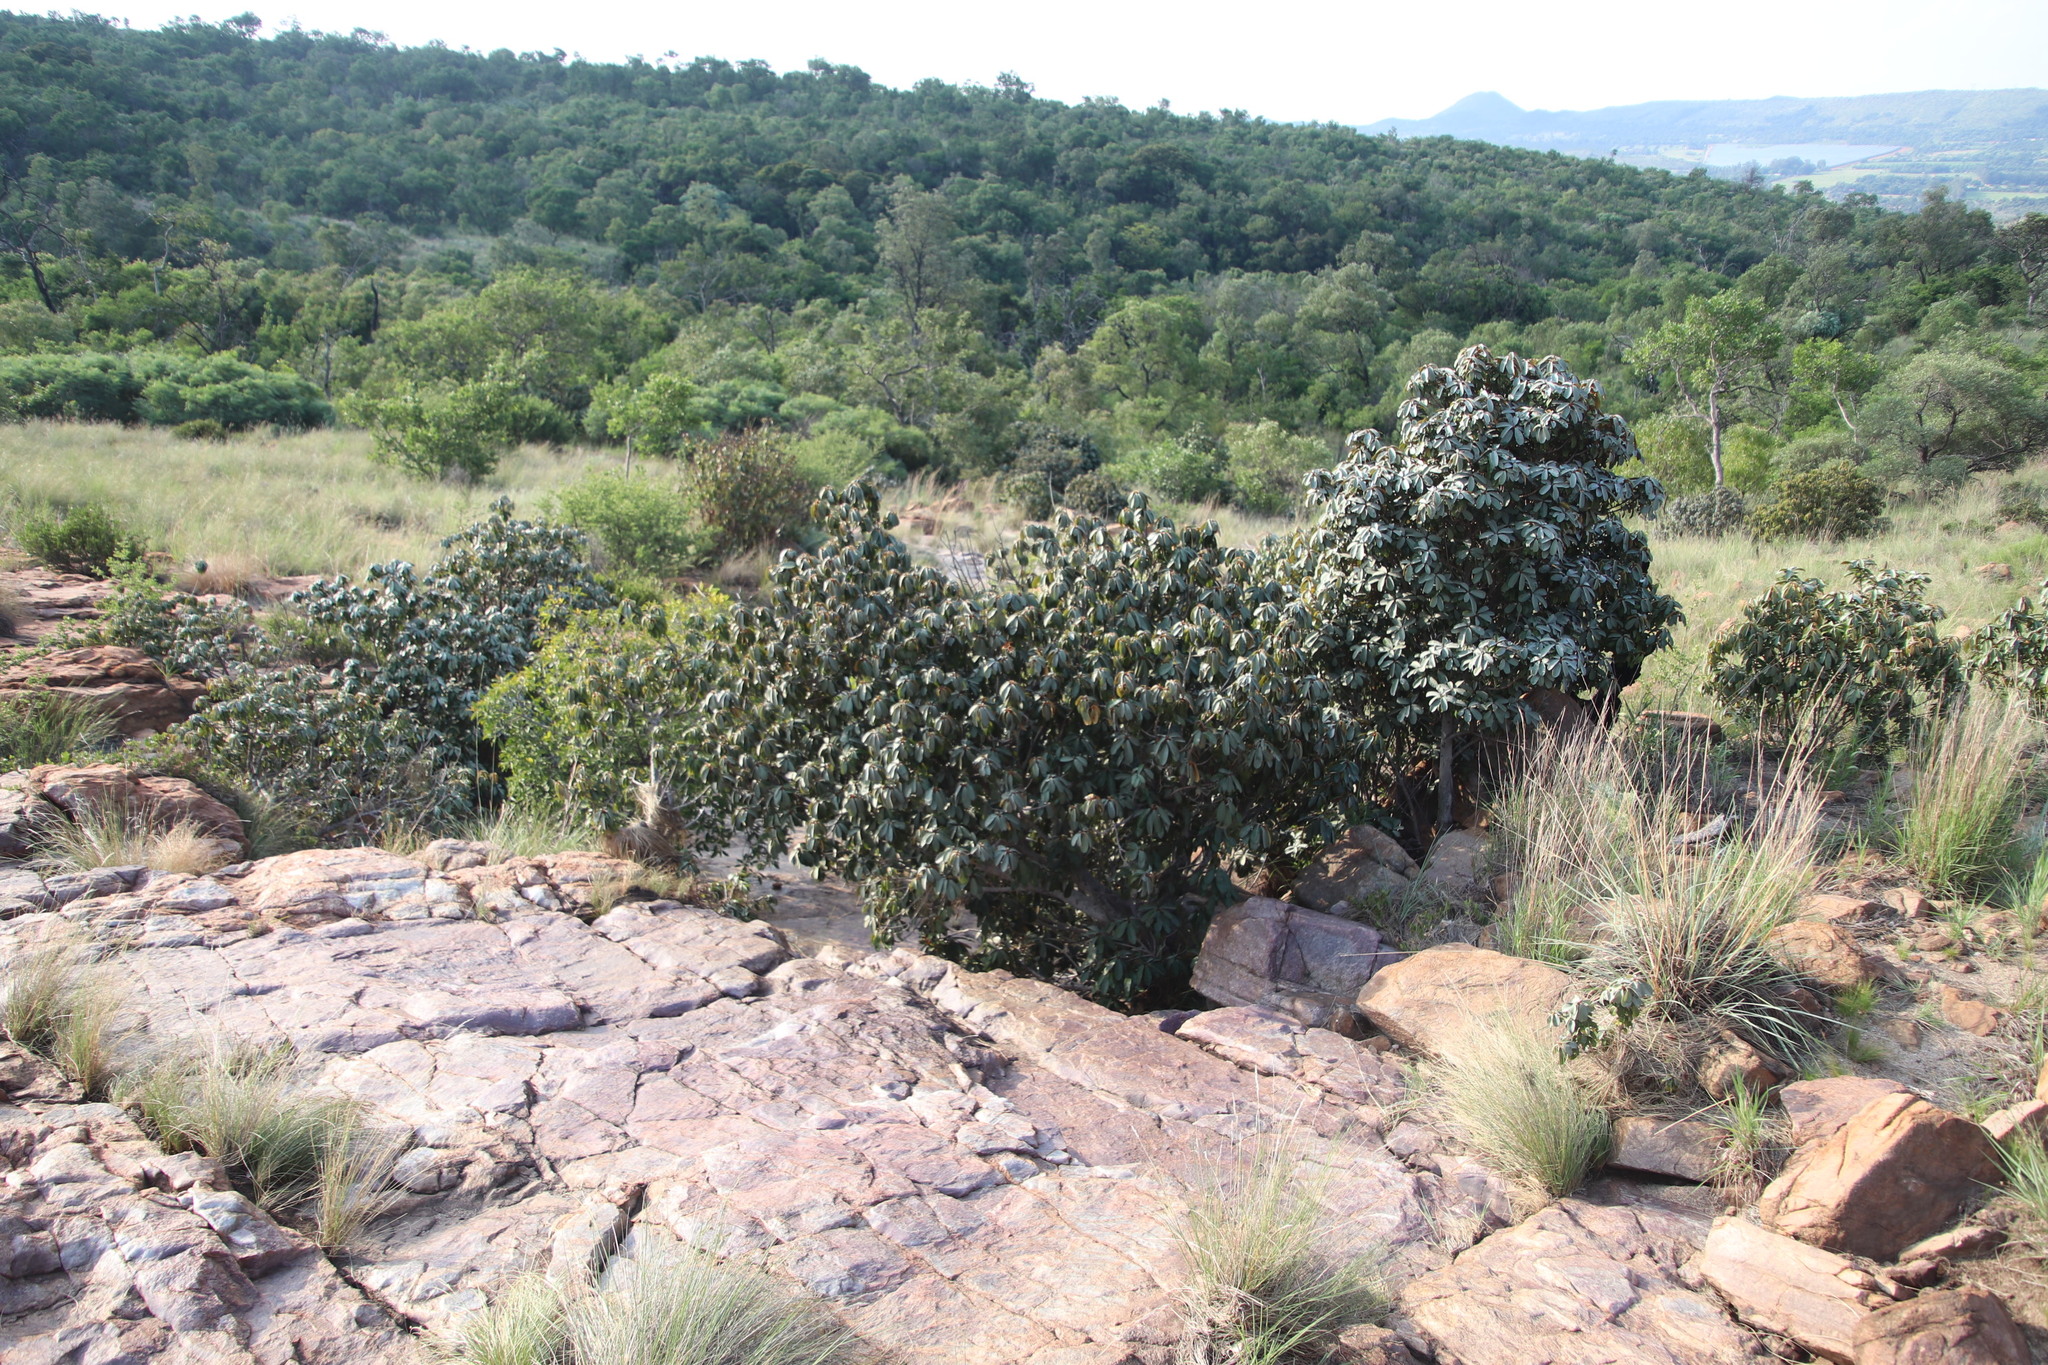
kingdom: Plantae
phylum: Tracheophyta
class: Magnoliopsida
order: Ericales
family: Sapotaceae
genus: Englerophytum
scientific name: Englerophytum magalismontanum
